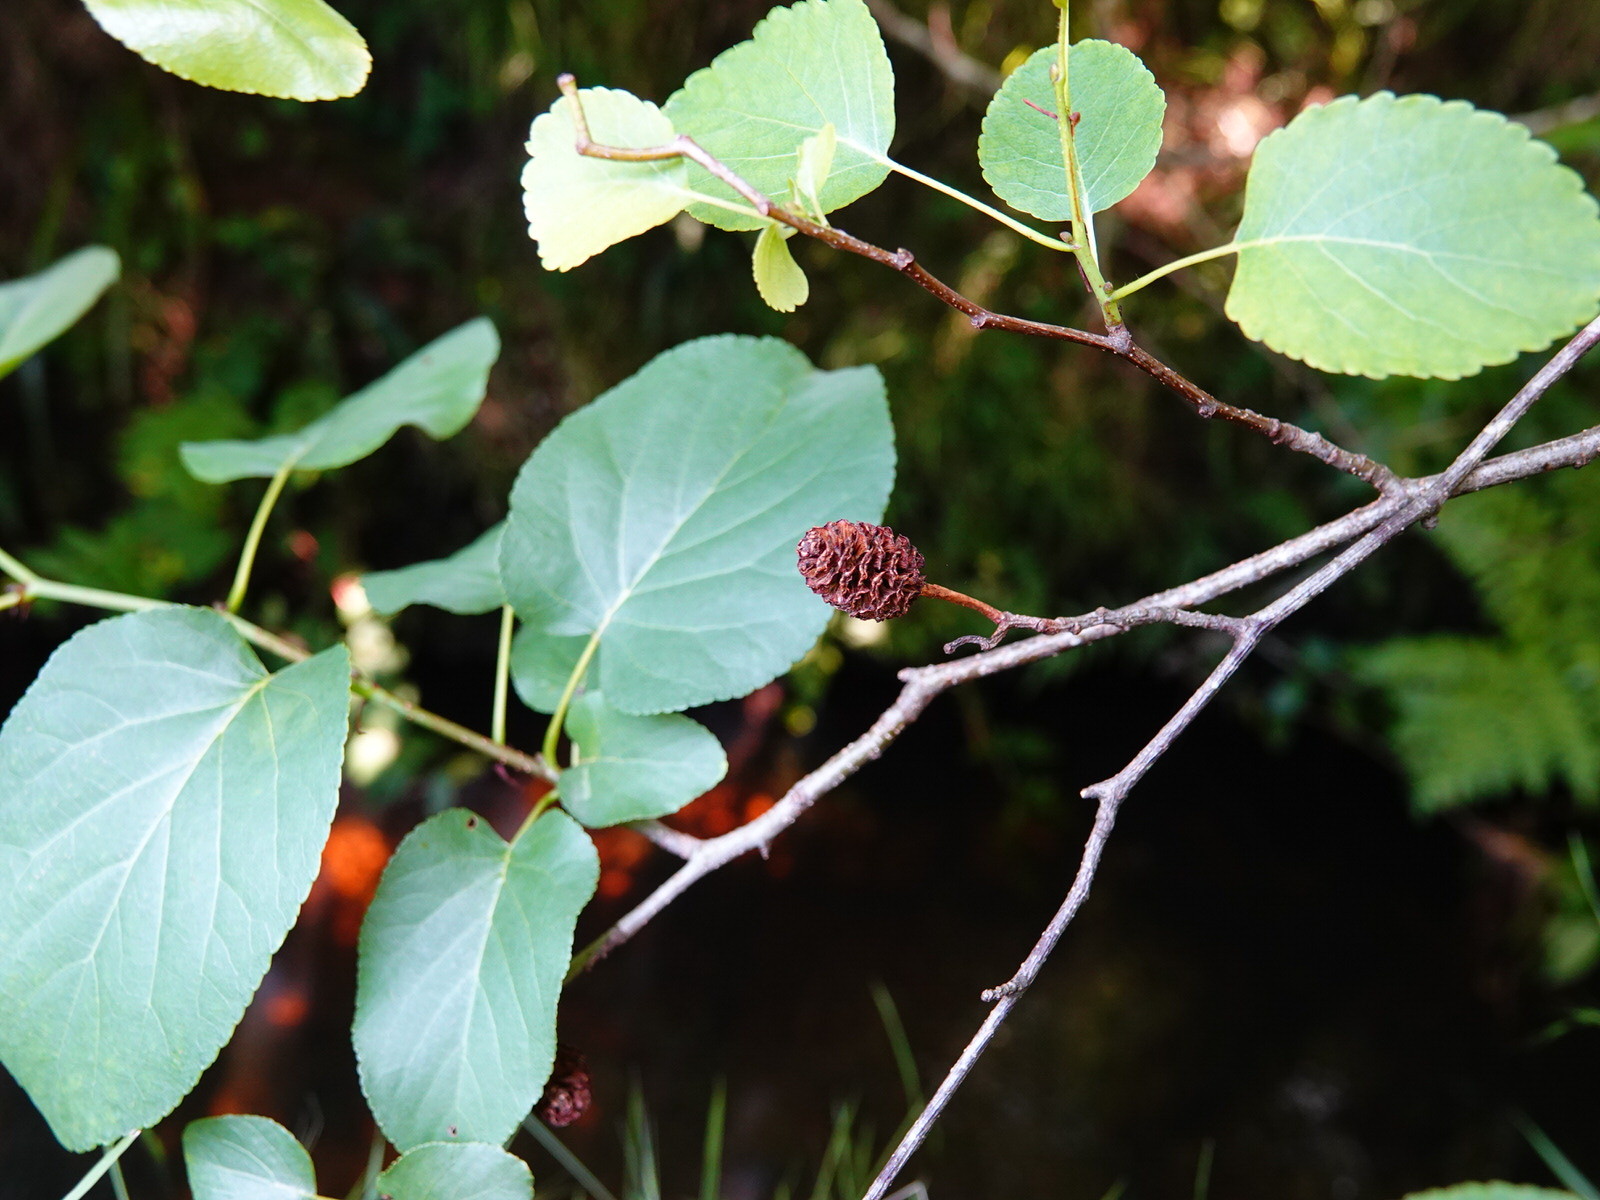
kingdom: Plantae
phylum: Tracheophyta
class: Magnoliopsida
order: Fagales
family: Betulaceae
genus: Alnus
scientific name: Alnus cordata
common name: Italian alder
